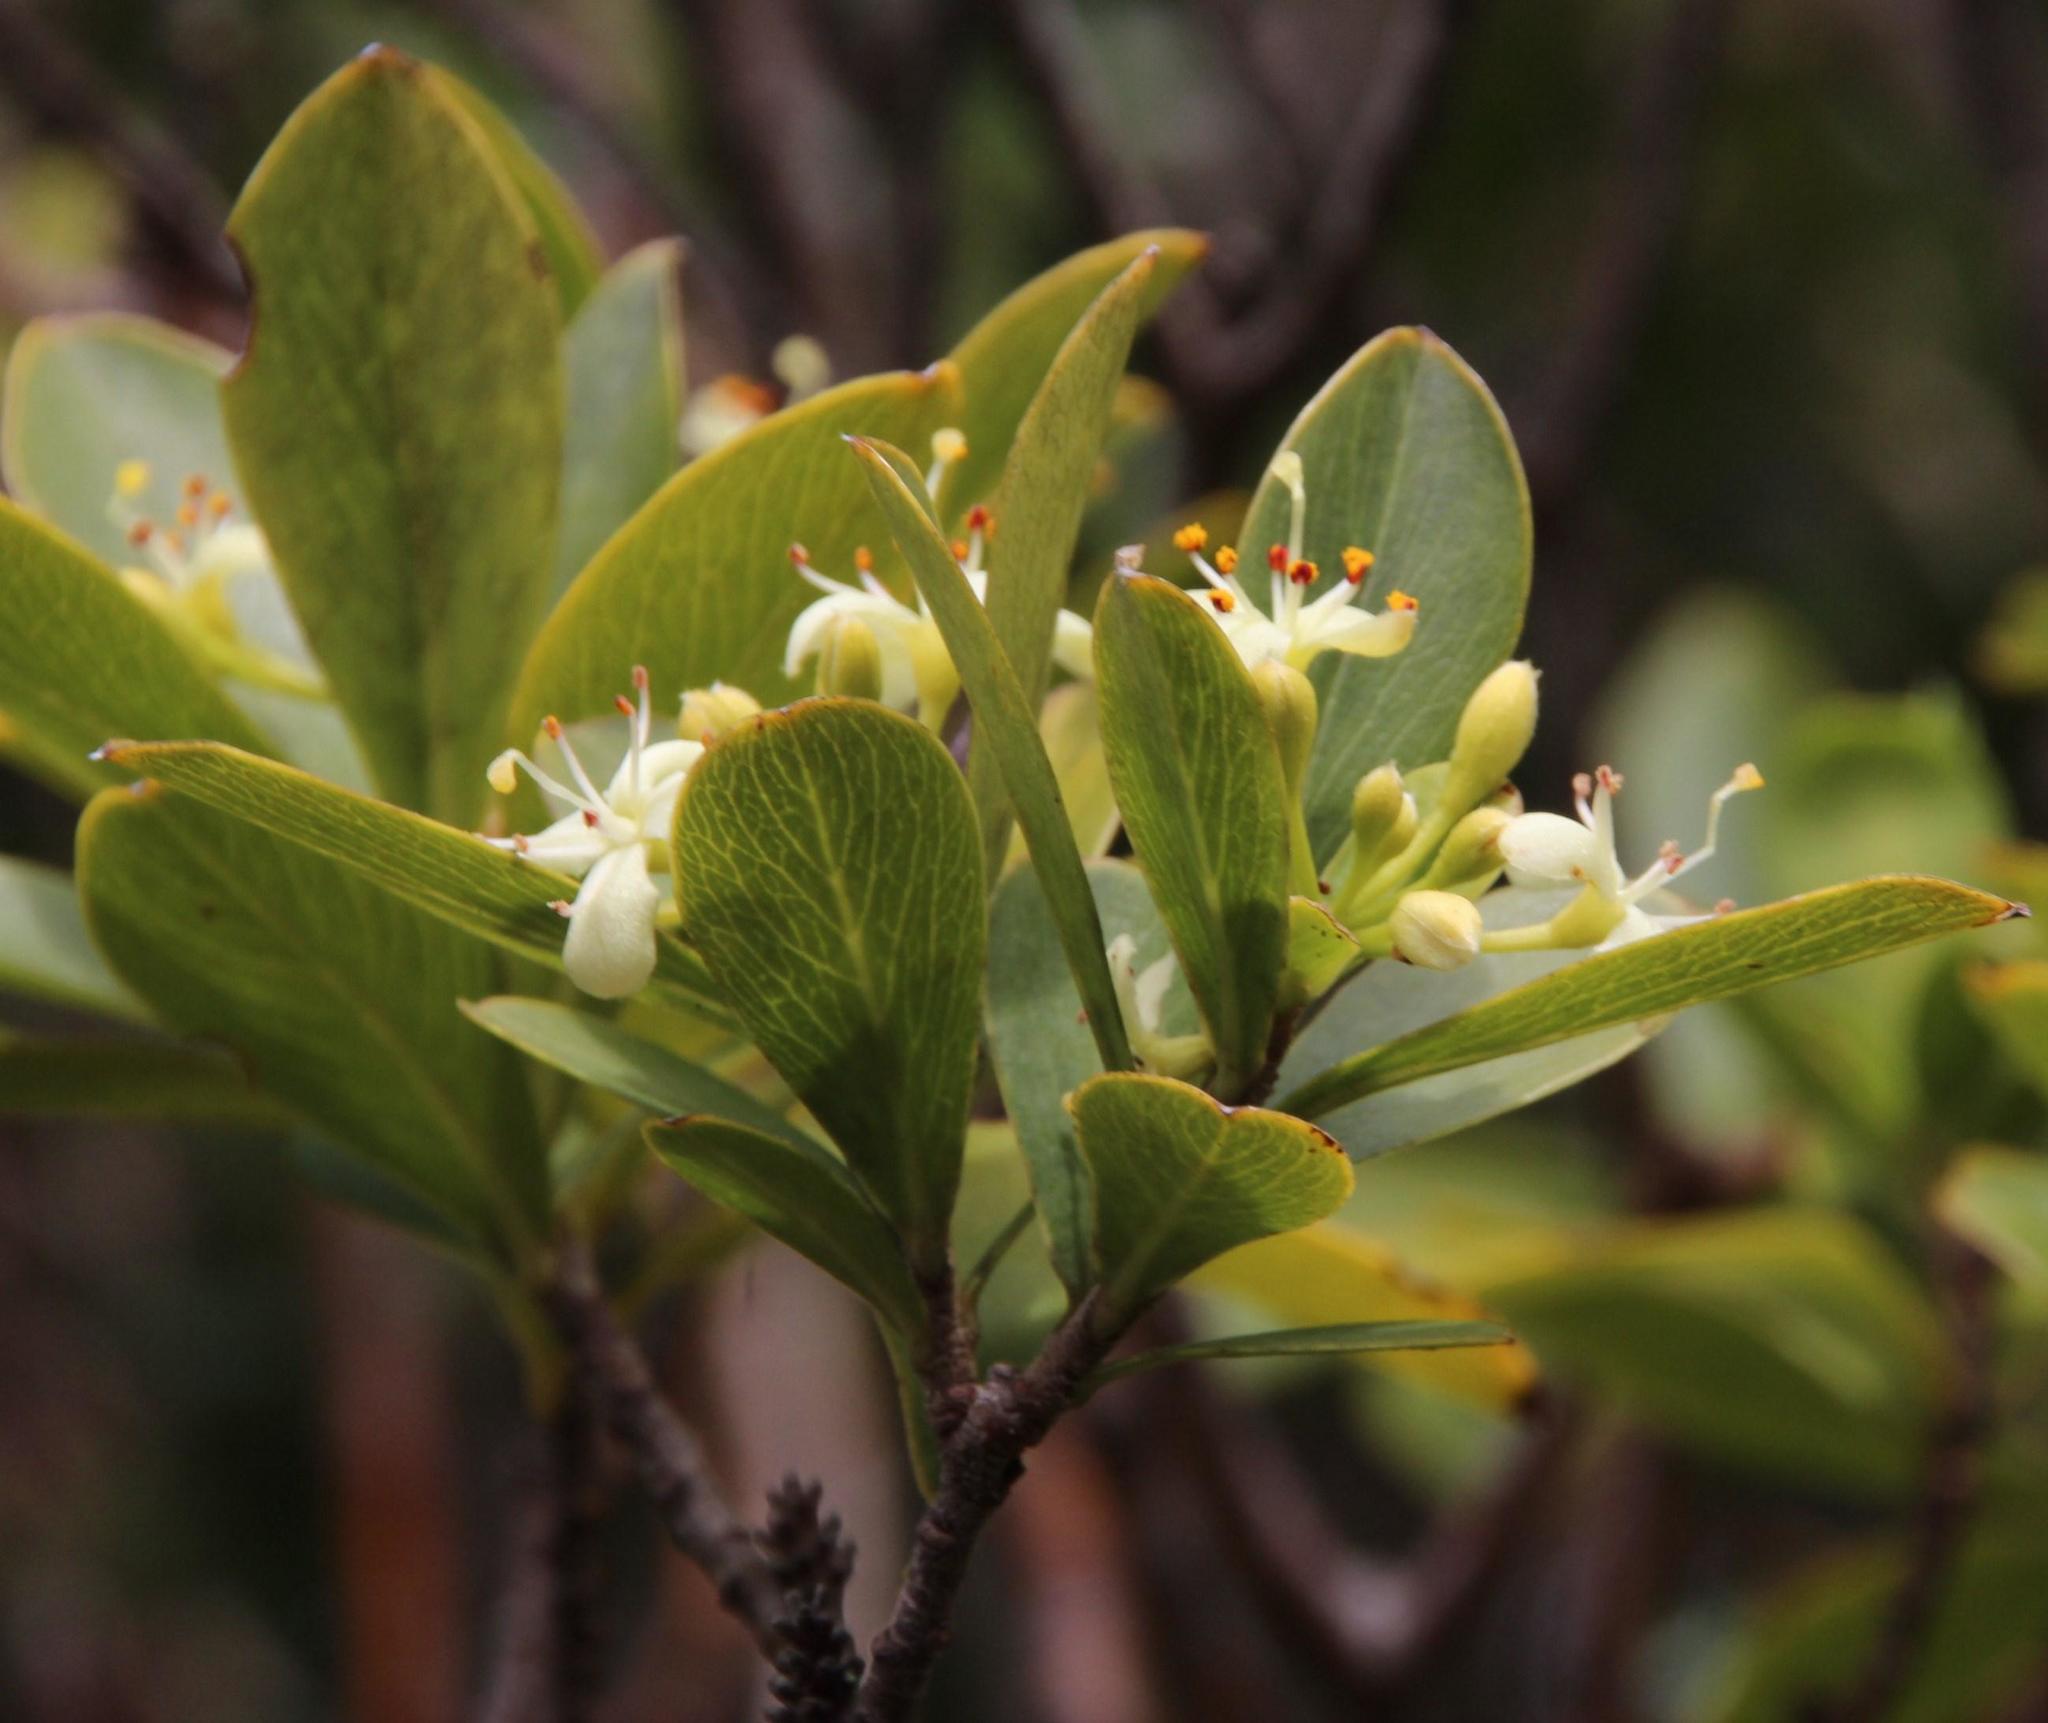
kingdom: Plantae
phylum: Tracheophyta
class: Magnoliopsida
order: Malvales
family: Thymelaeaceae
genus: Ovidia
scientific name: Ovidia andina
